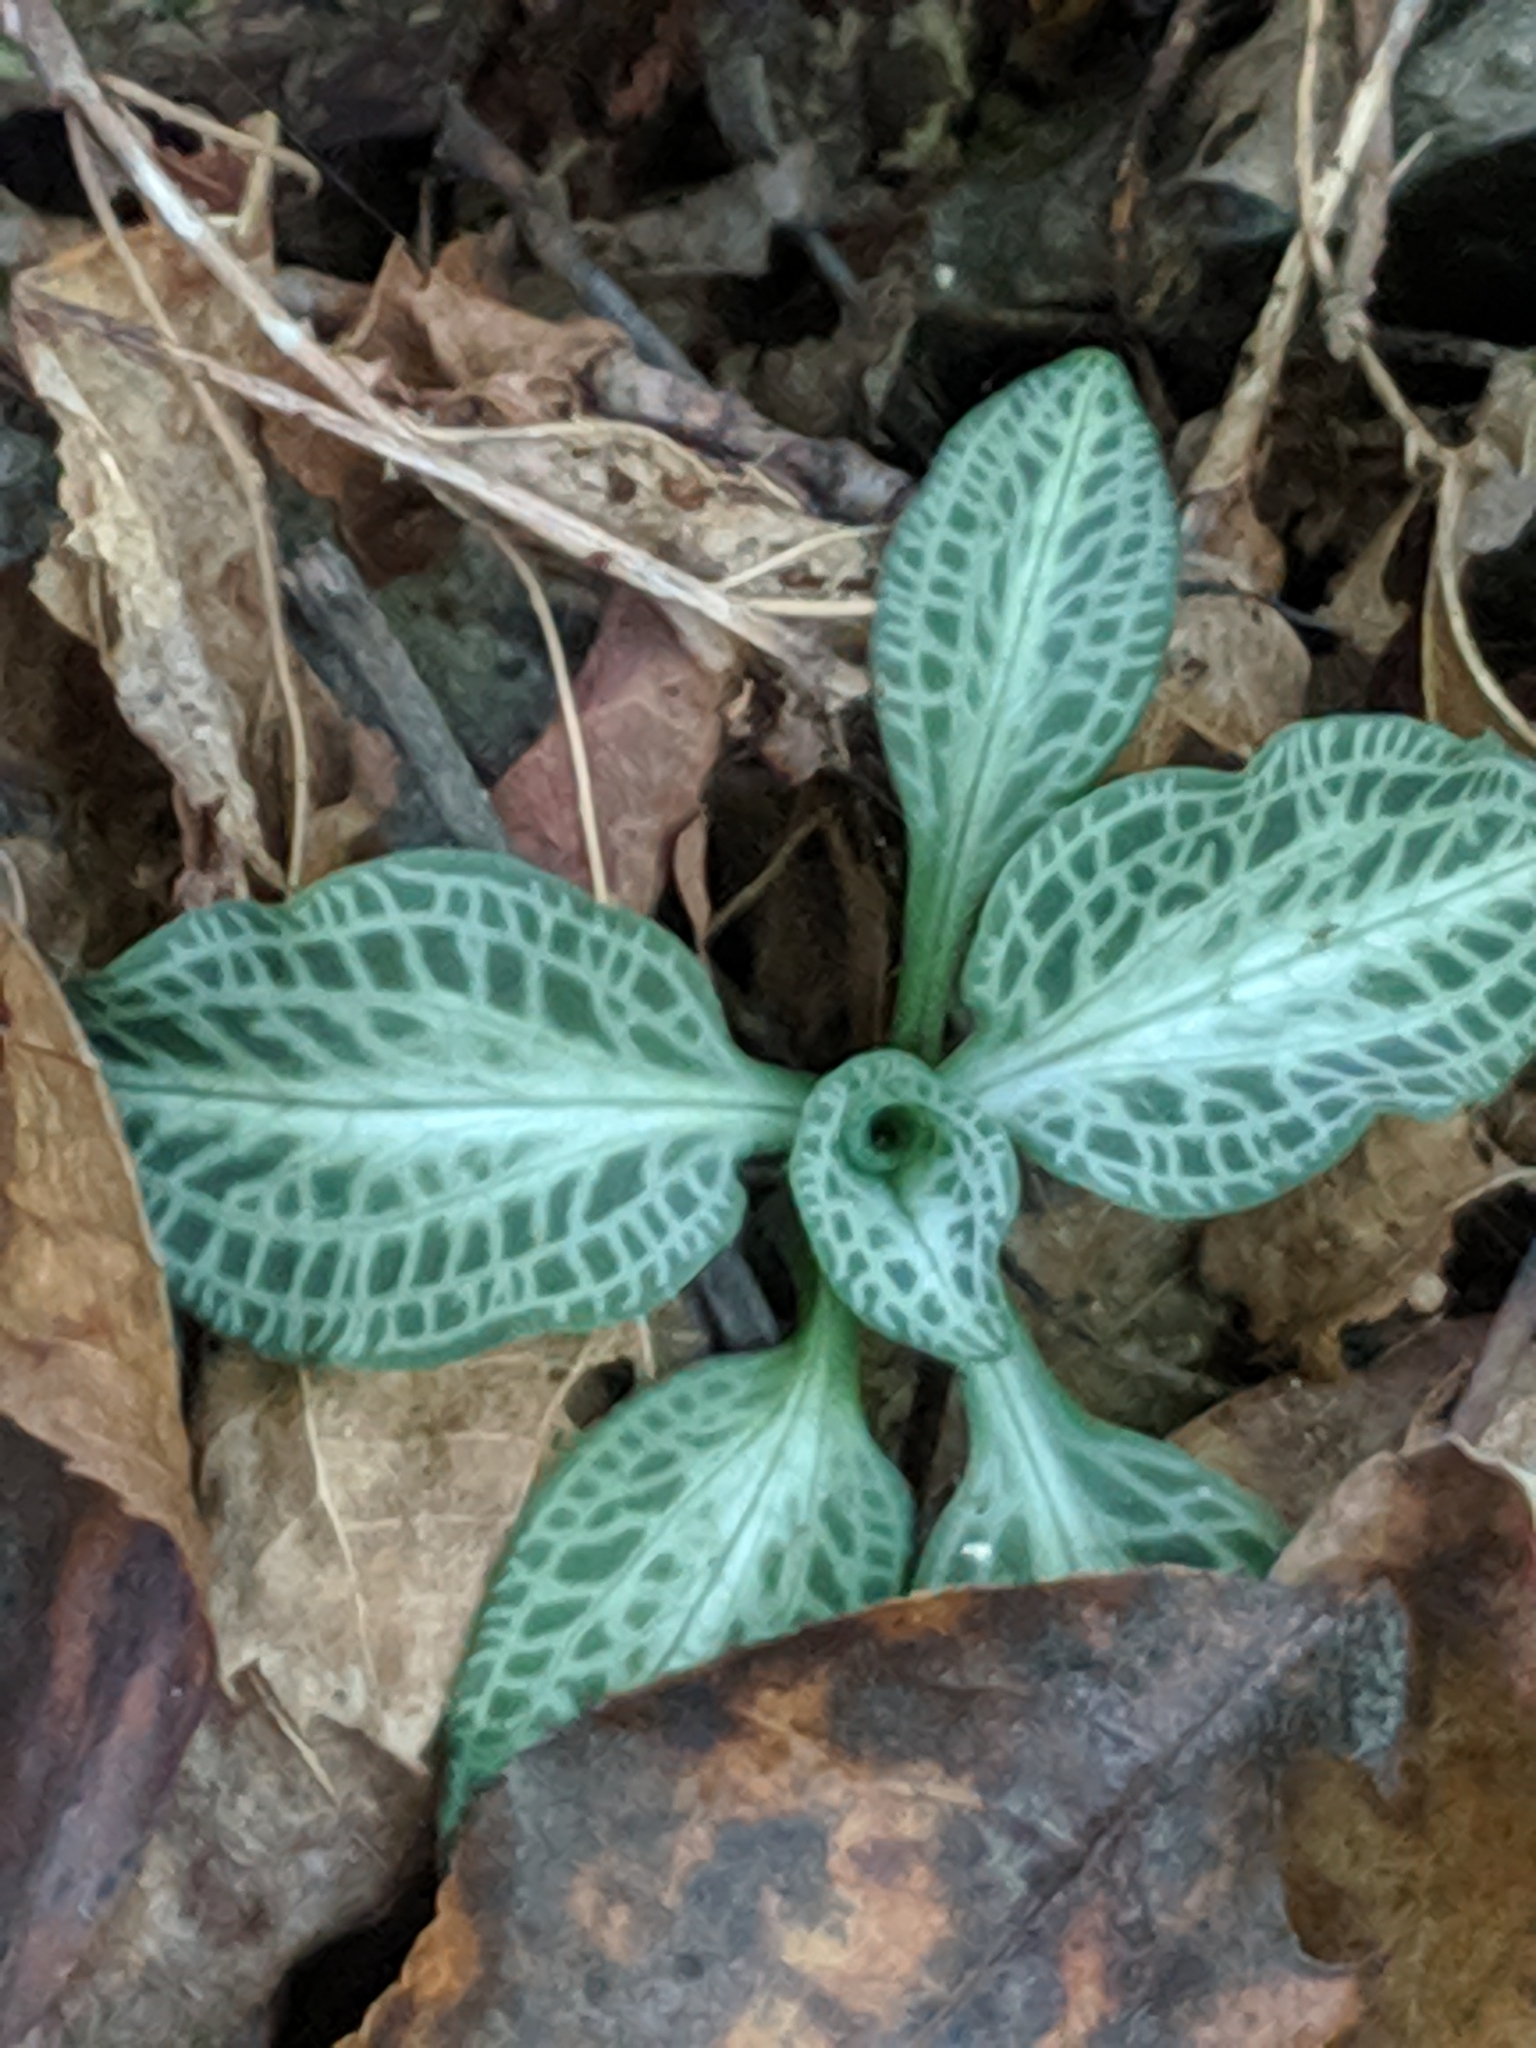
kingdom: Plantae
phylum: Tracheophyta
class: Liliopsida
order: Asparagales
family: Orchidaceae
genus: Goodyera
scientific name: Goodyera pubescens
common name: Downy rattlesnake-plantain
